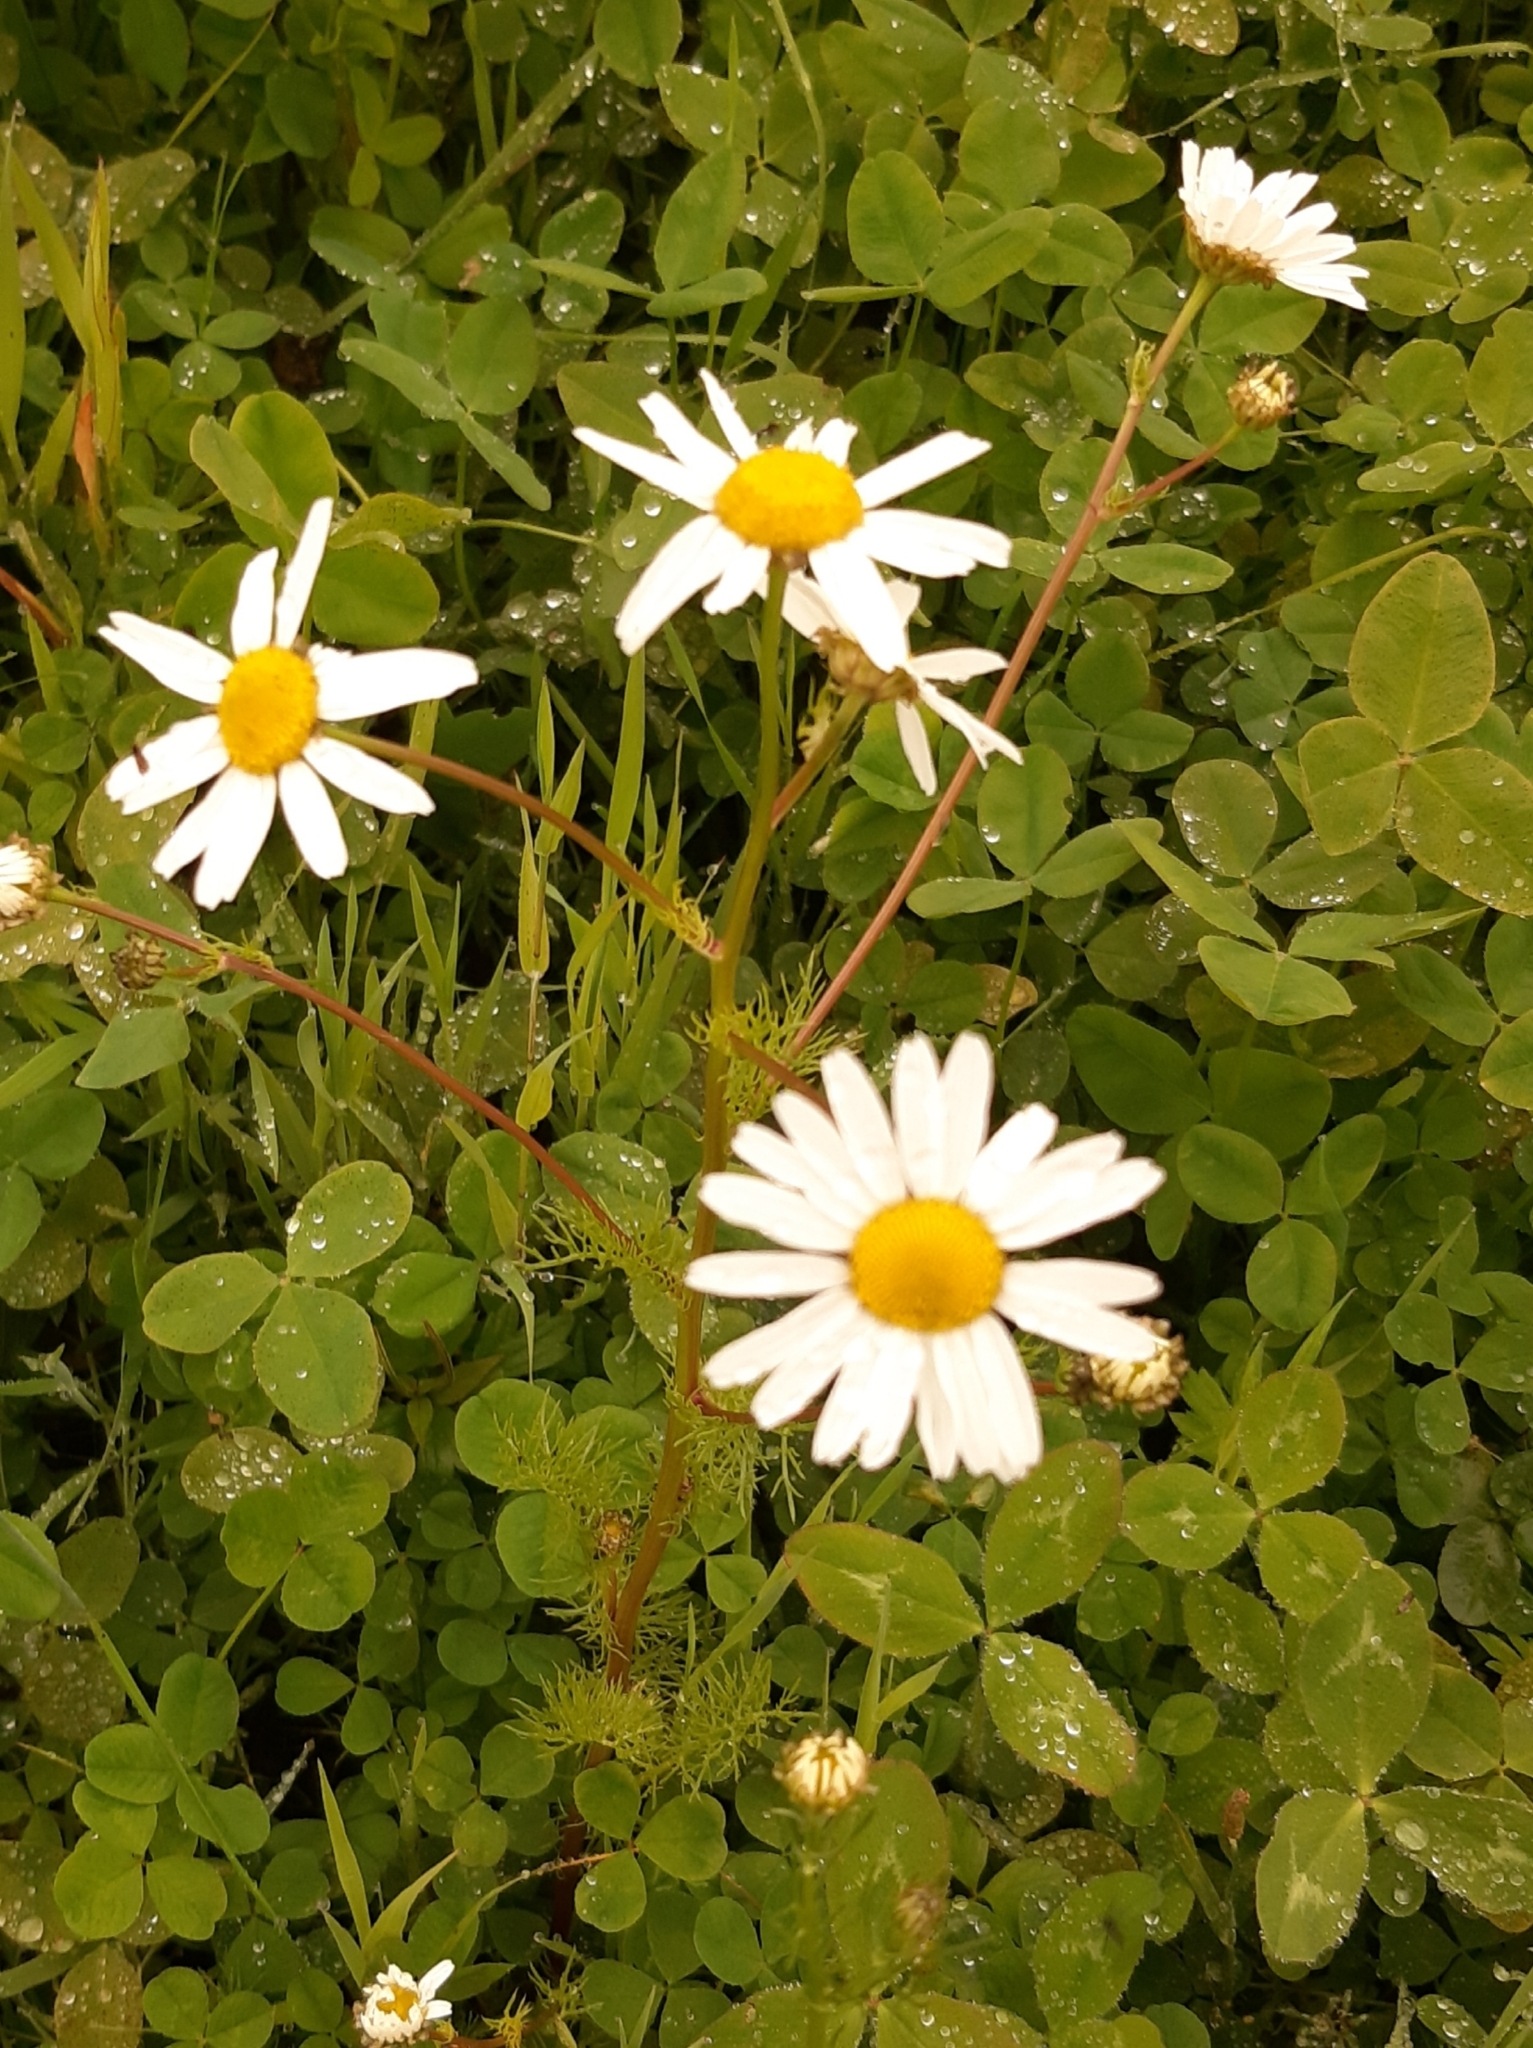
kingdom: Plantae
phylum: Tracheophyta
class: Magnoliopsida
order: Asterales
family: Asteraceae
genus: Tripleurospermum
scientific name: Tripleurospermum inodorum
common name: Scentless mayweed
